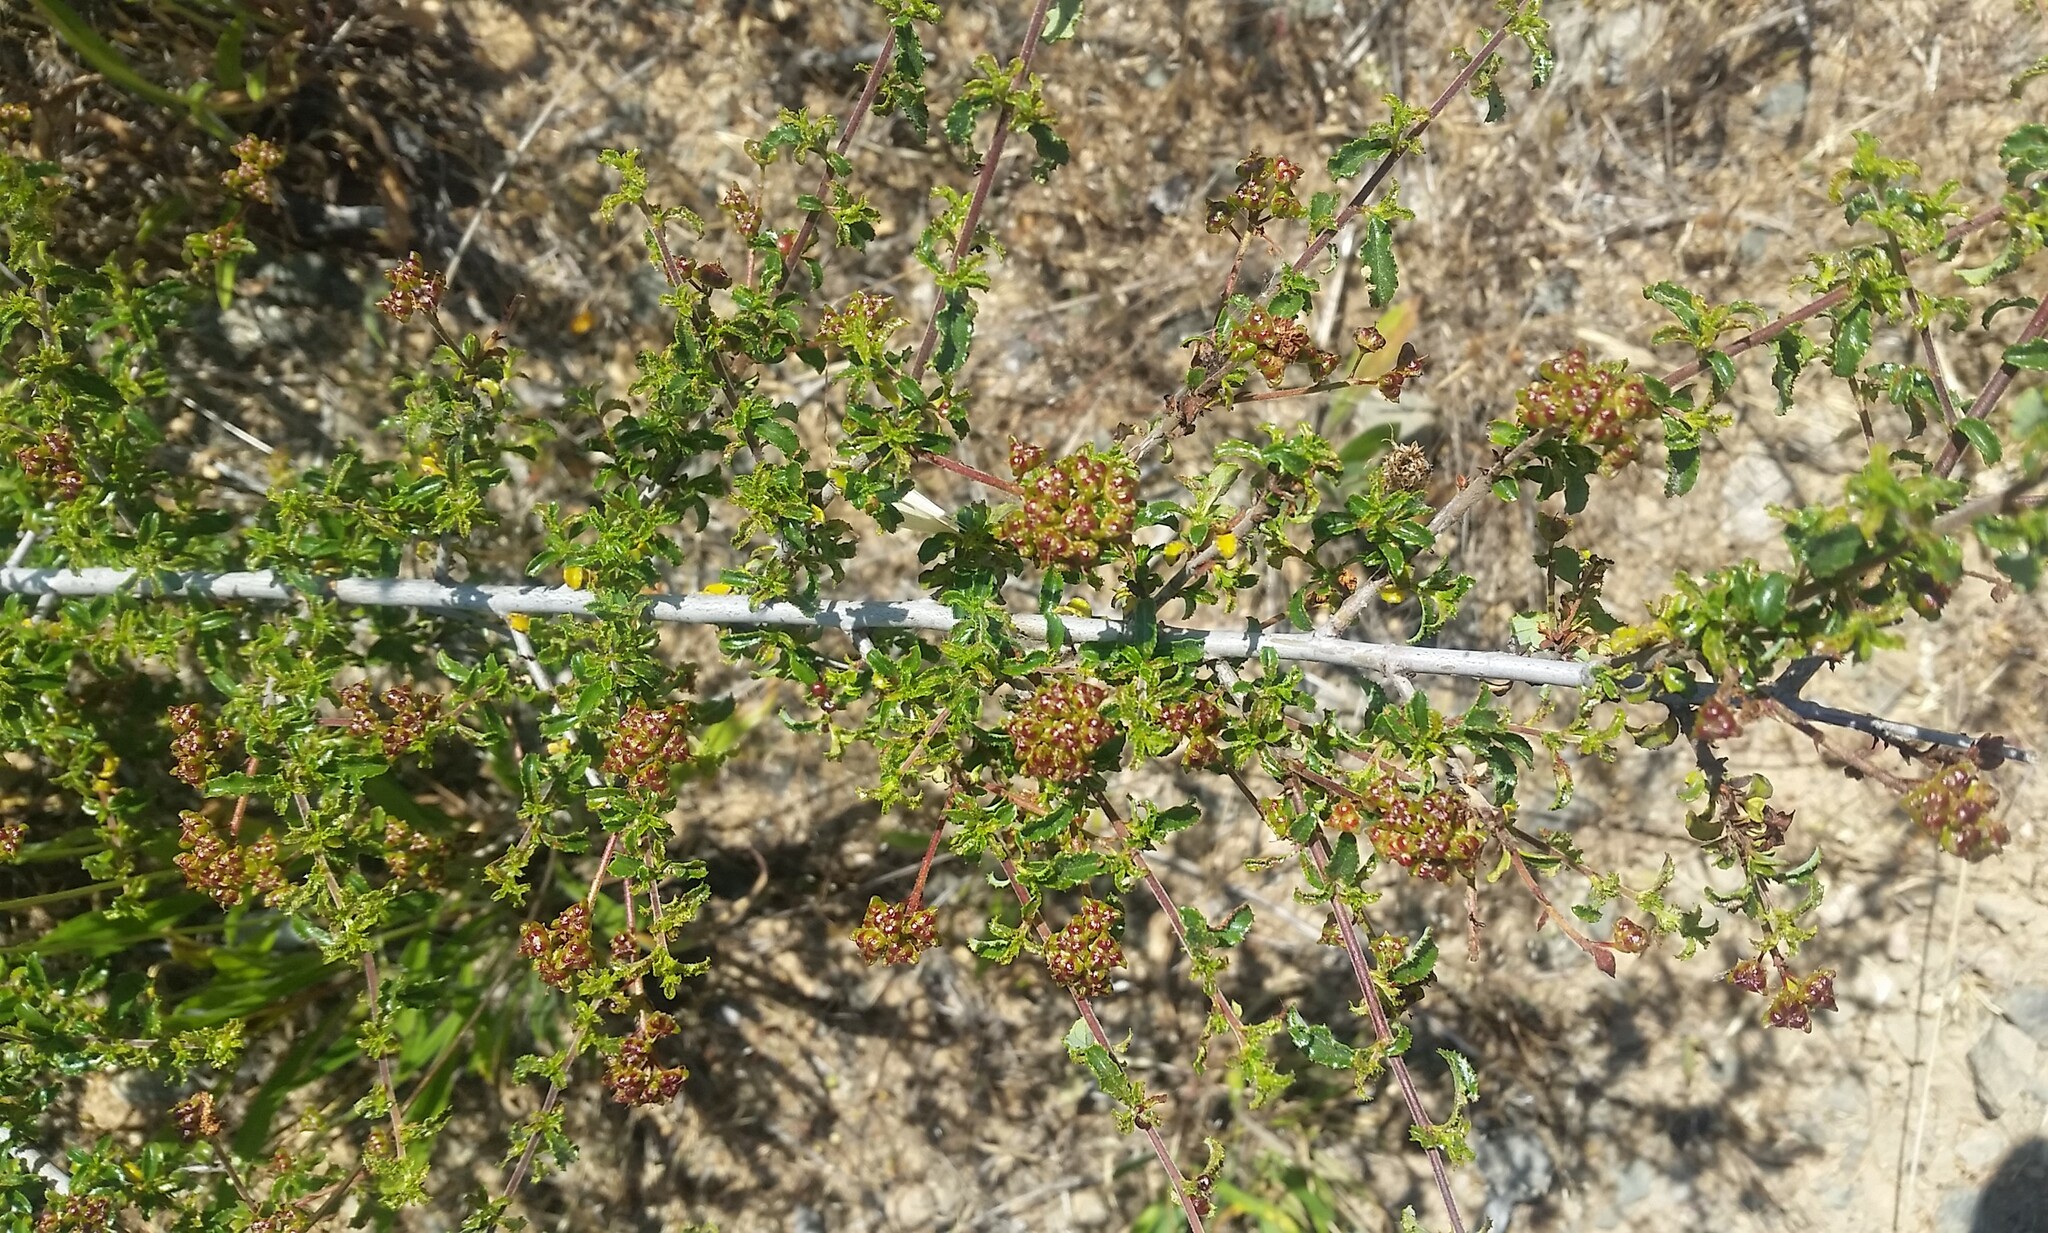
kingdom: Plantae
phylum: Tracheophyta
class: Magnoliopsida
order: Rosales
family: Rhamnaceae
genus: Ceanothus
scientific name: Ceanothus foliosus
